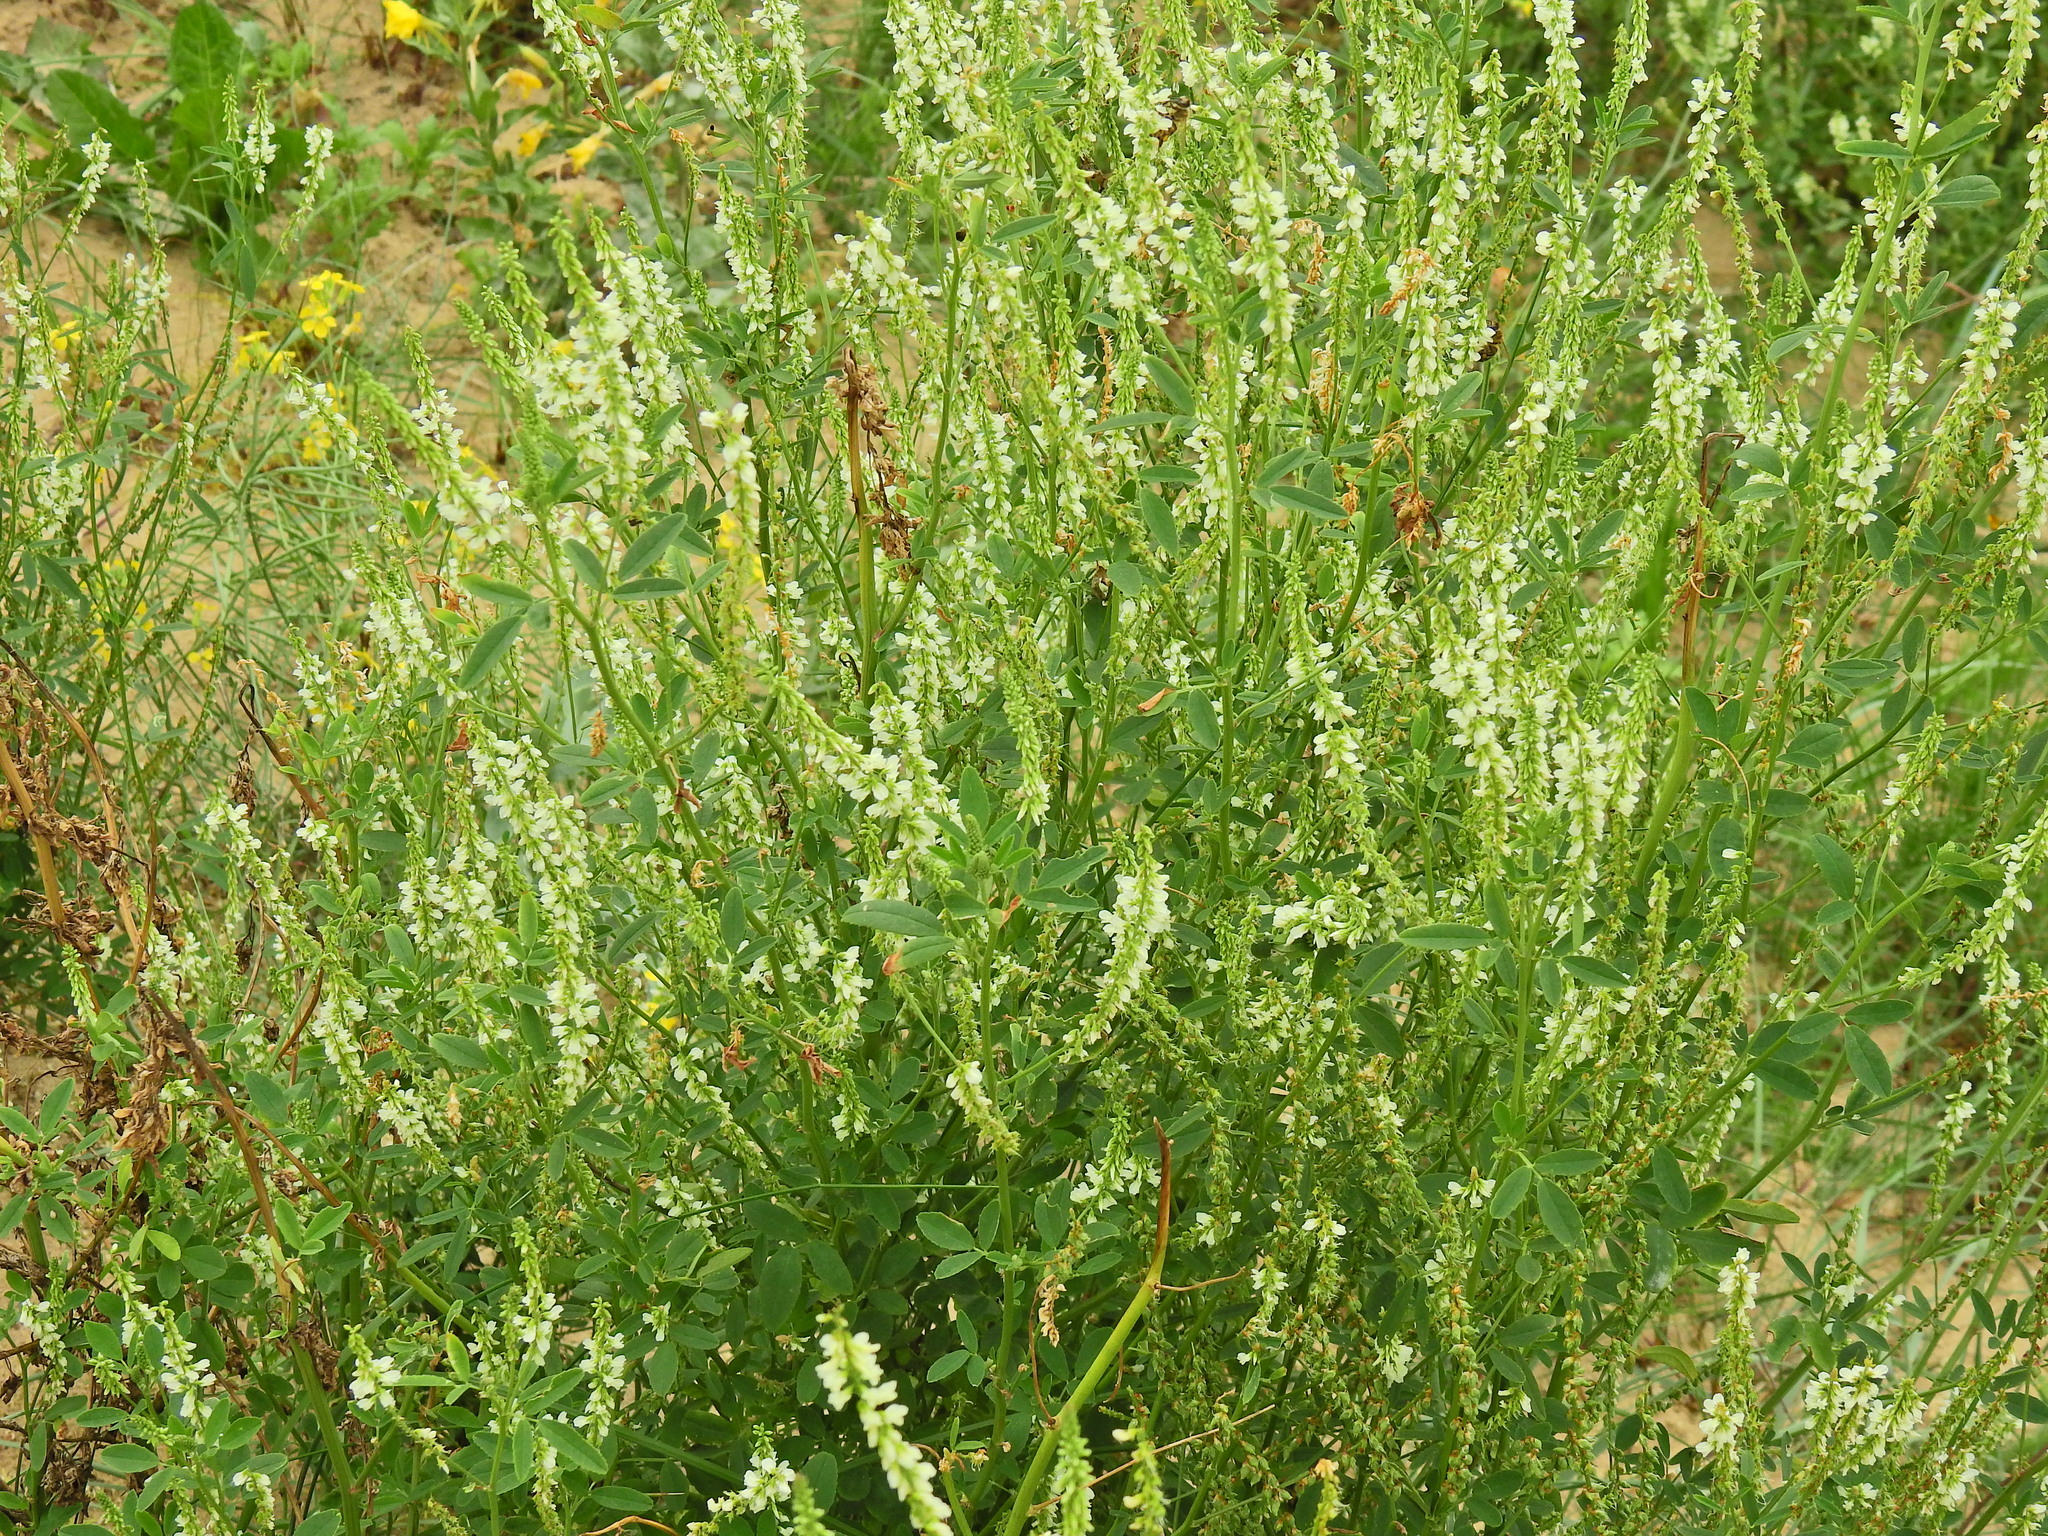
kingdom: Plantae
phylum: Tracheophyta
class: Magnoliopsida
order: Fabales
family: Fabaceae
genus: Melilotus
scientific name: Melilotus albus
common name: White melilot
